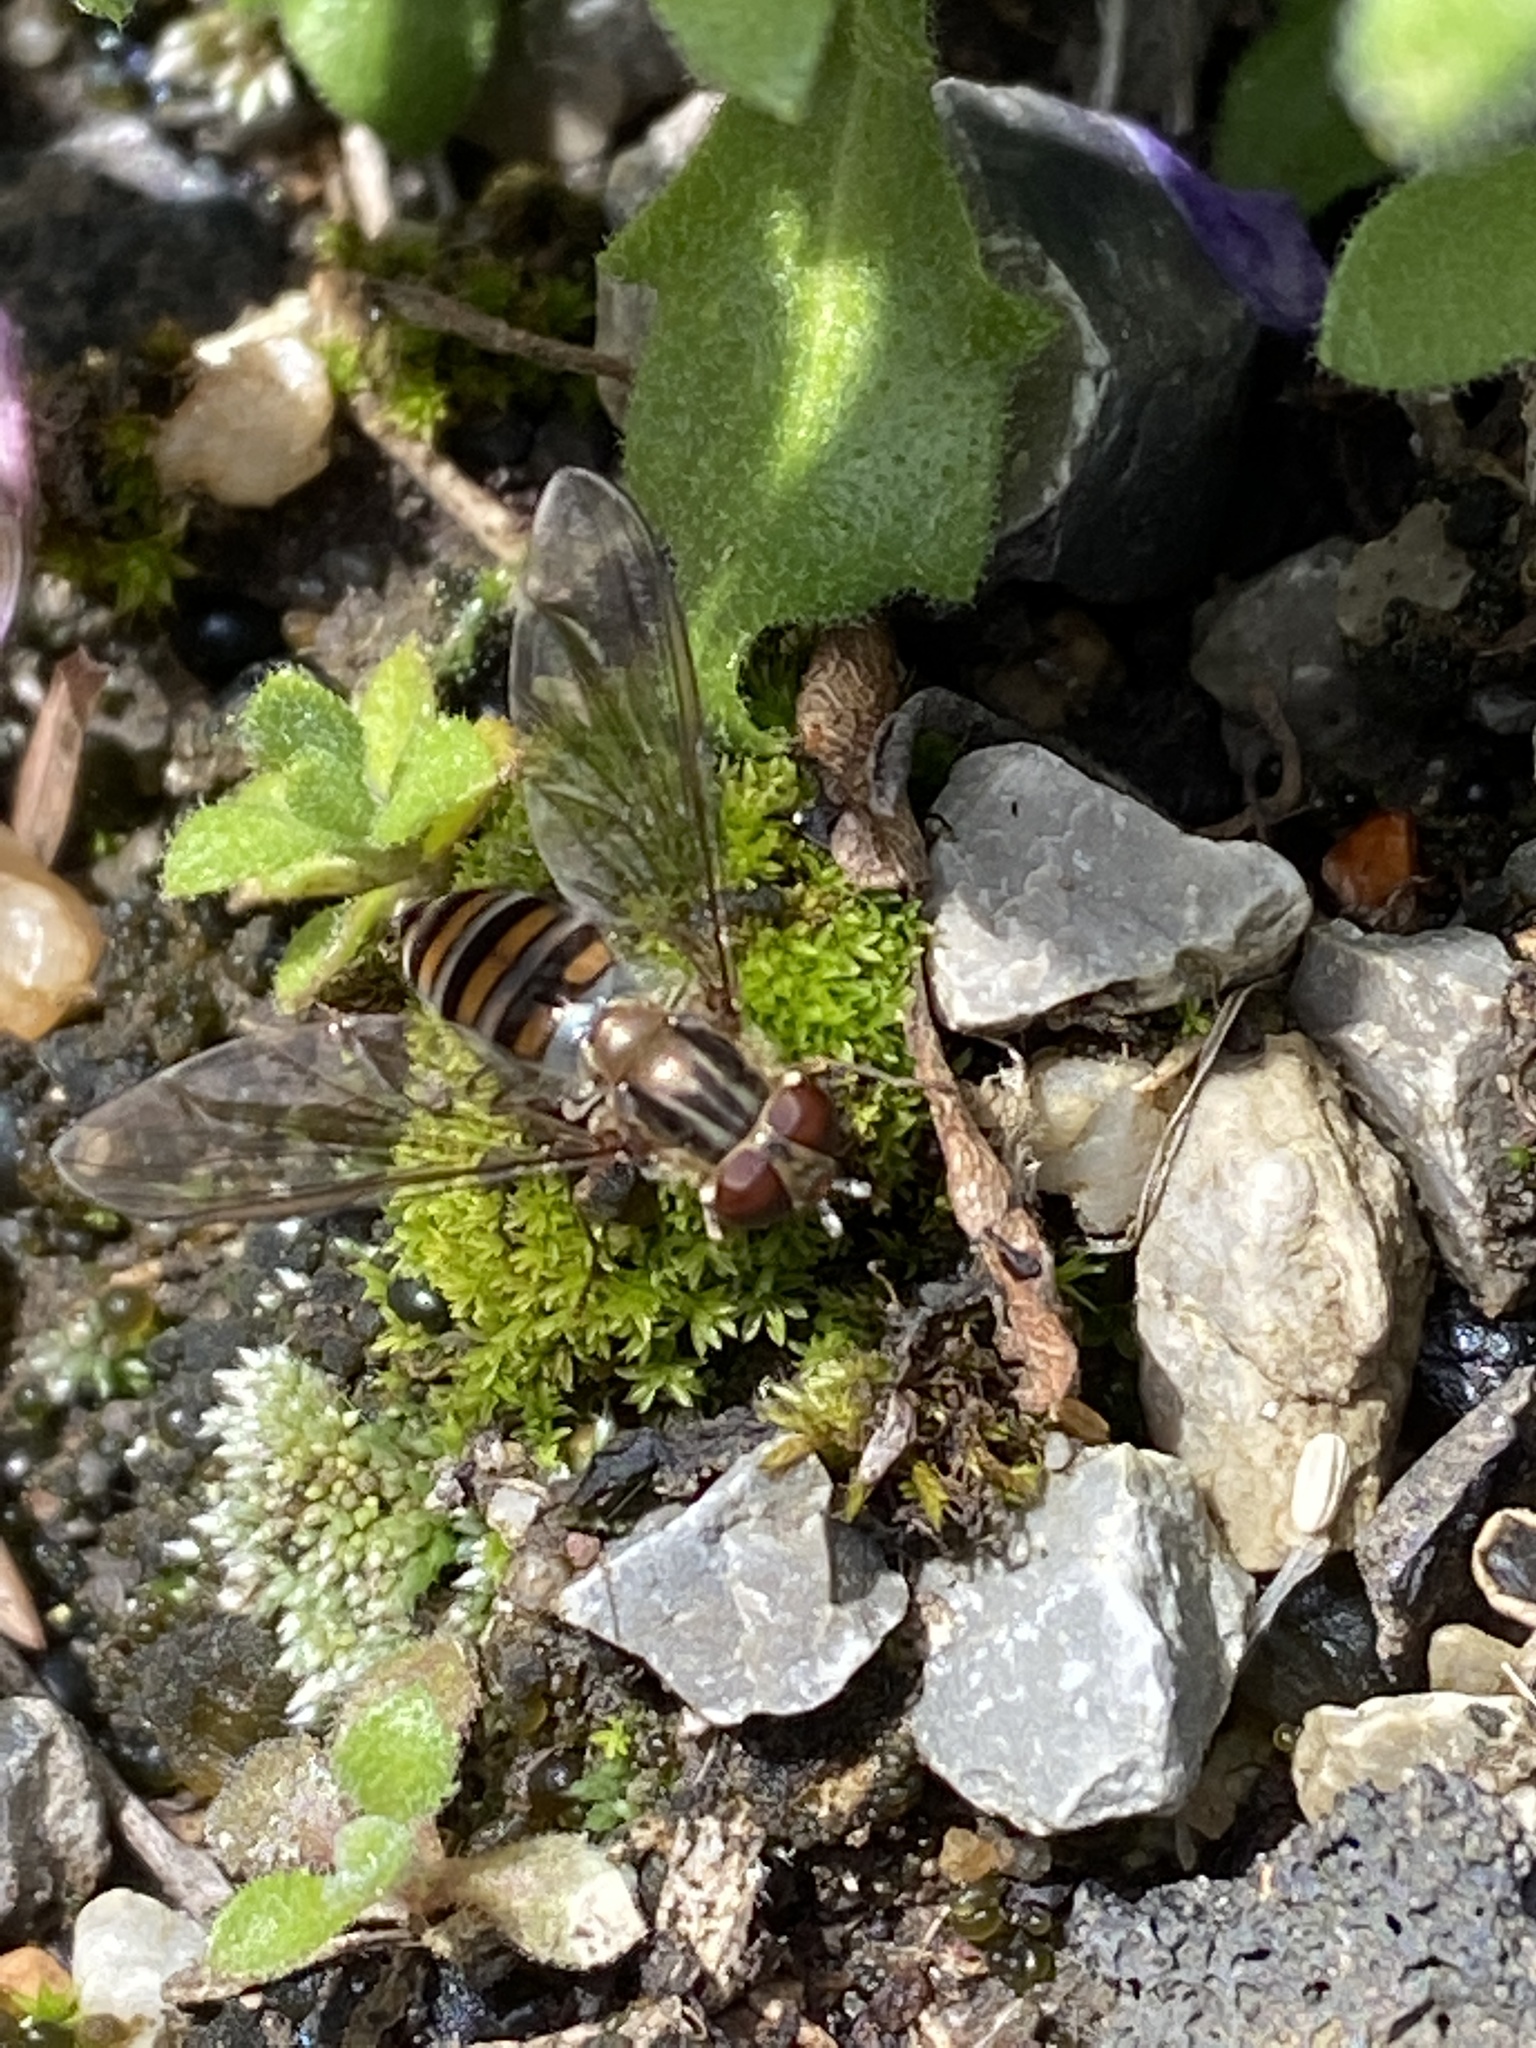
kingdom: Animalia
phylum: Arthropoda
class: Insecta
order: Diptera
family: Syrphidae
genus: Episyrphus
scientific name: Episyrphus balteatus
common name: Marmalade hoverfly
